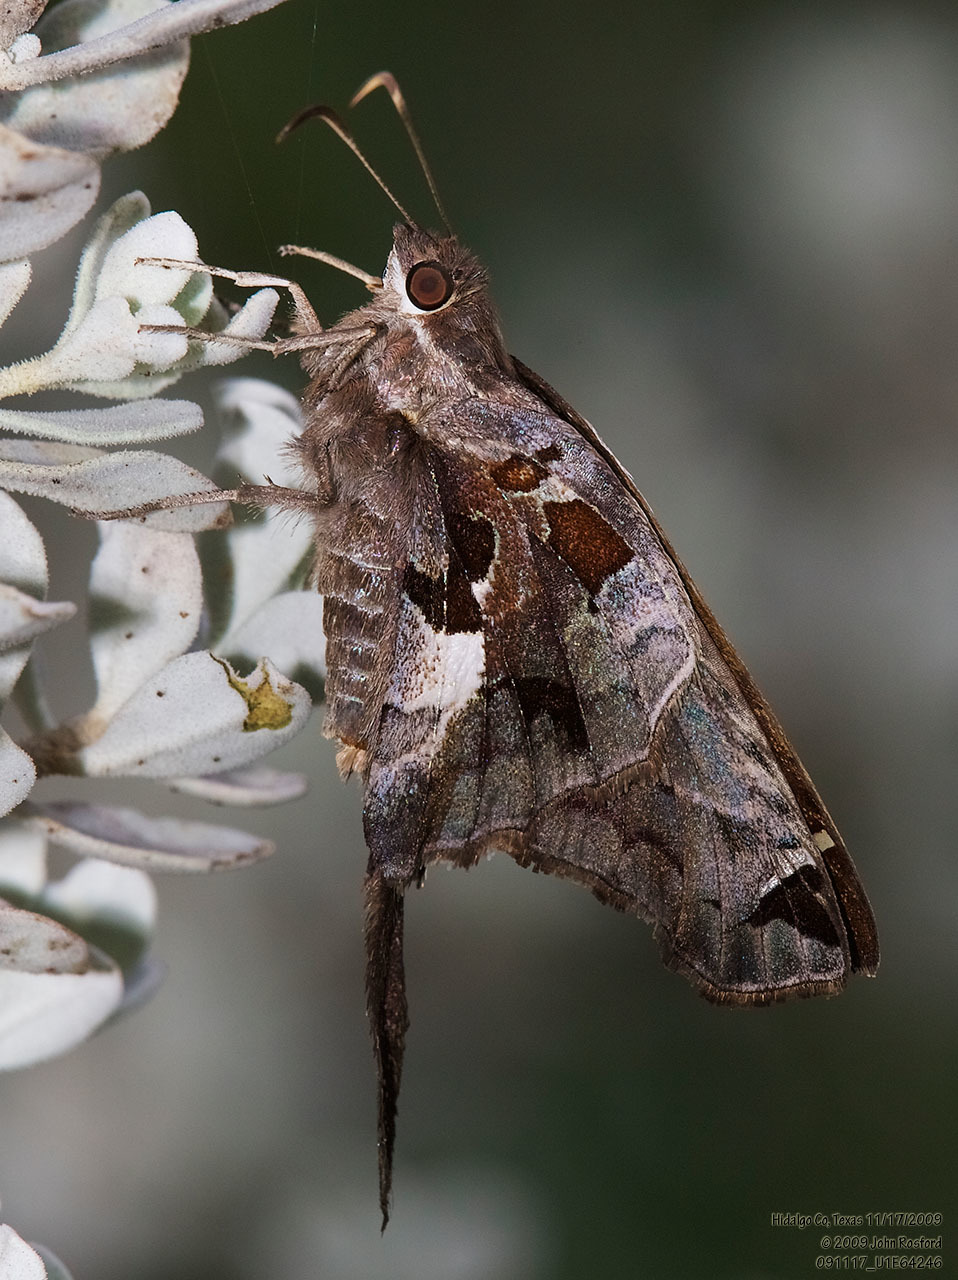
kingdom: Animalia
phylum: Arthropoda
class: Insecta
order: Lepidoptera
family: Hesperiidae
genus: Chioides
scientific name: Chioides zilpa
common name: Zilpa longtail
